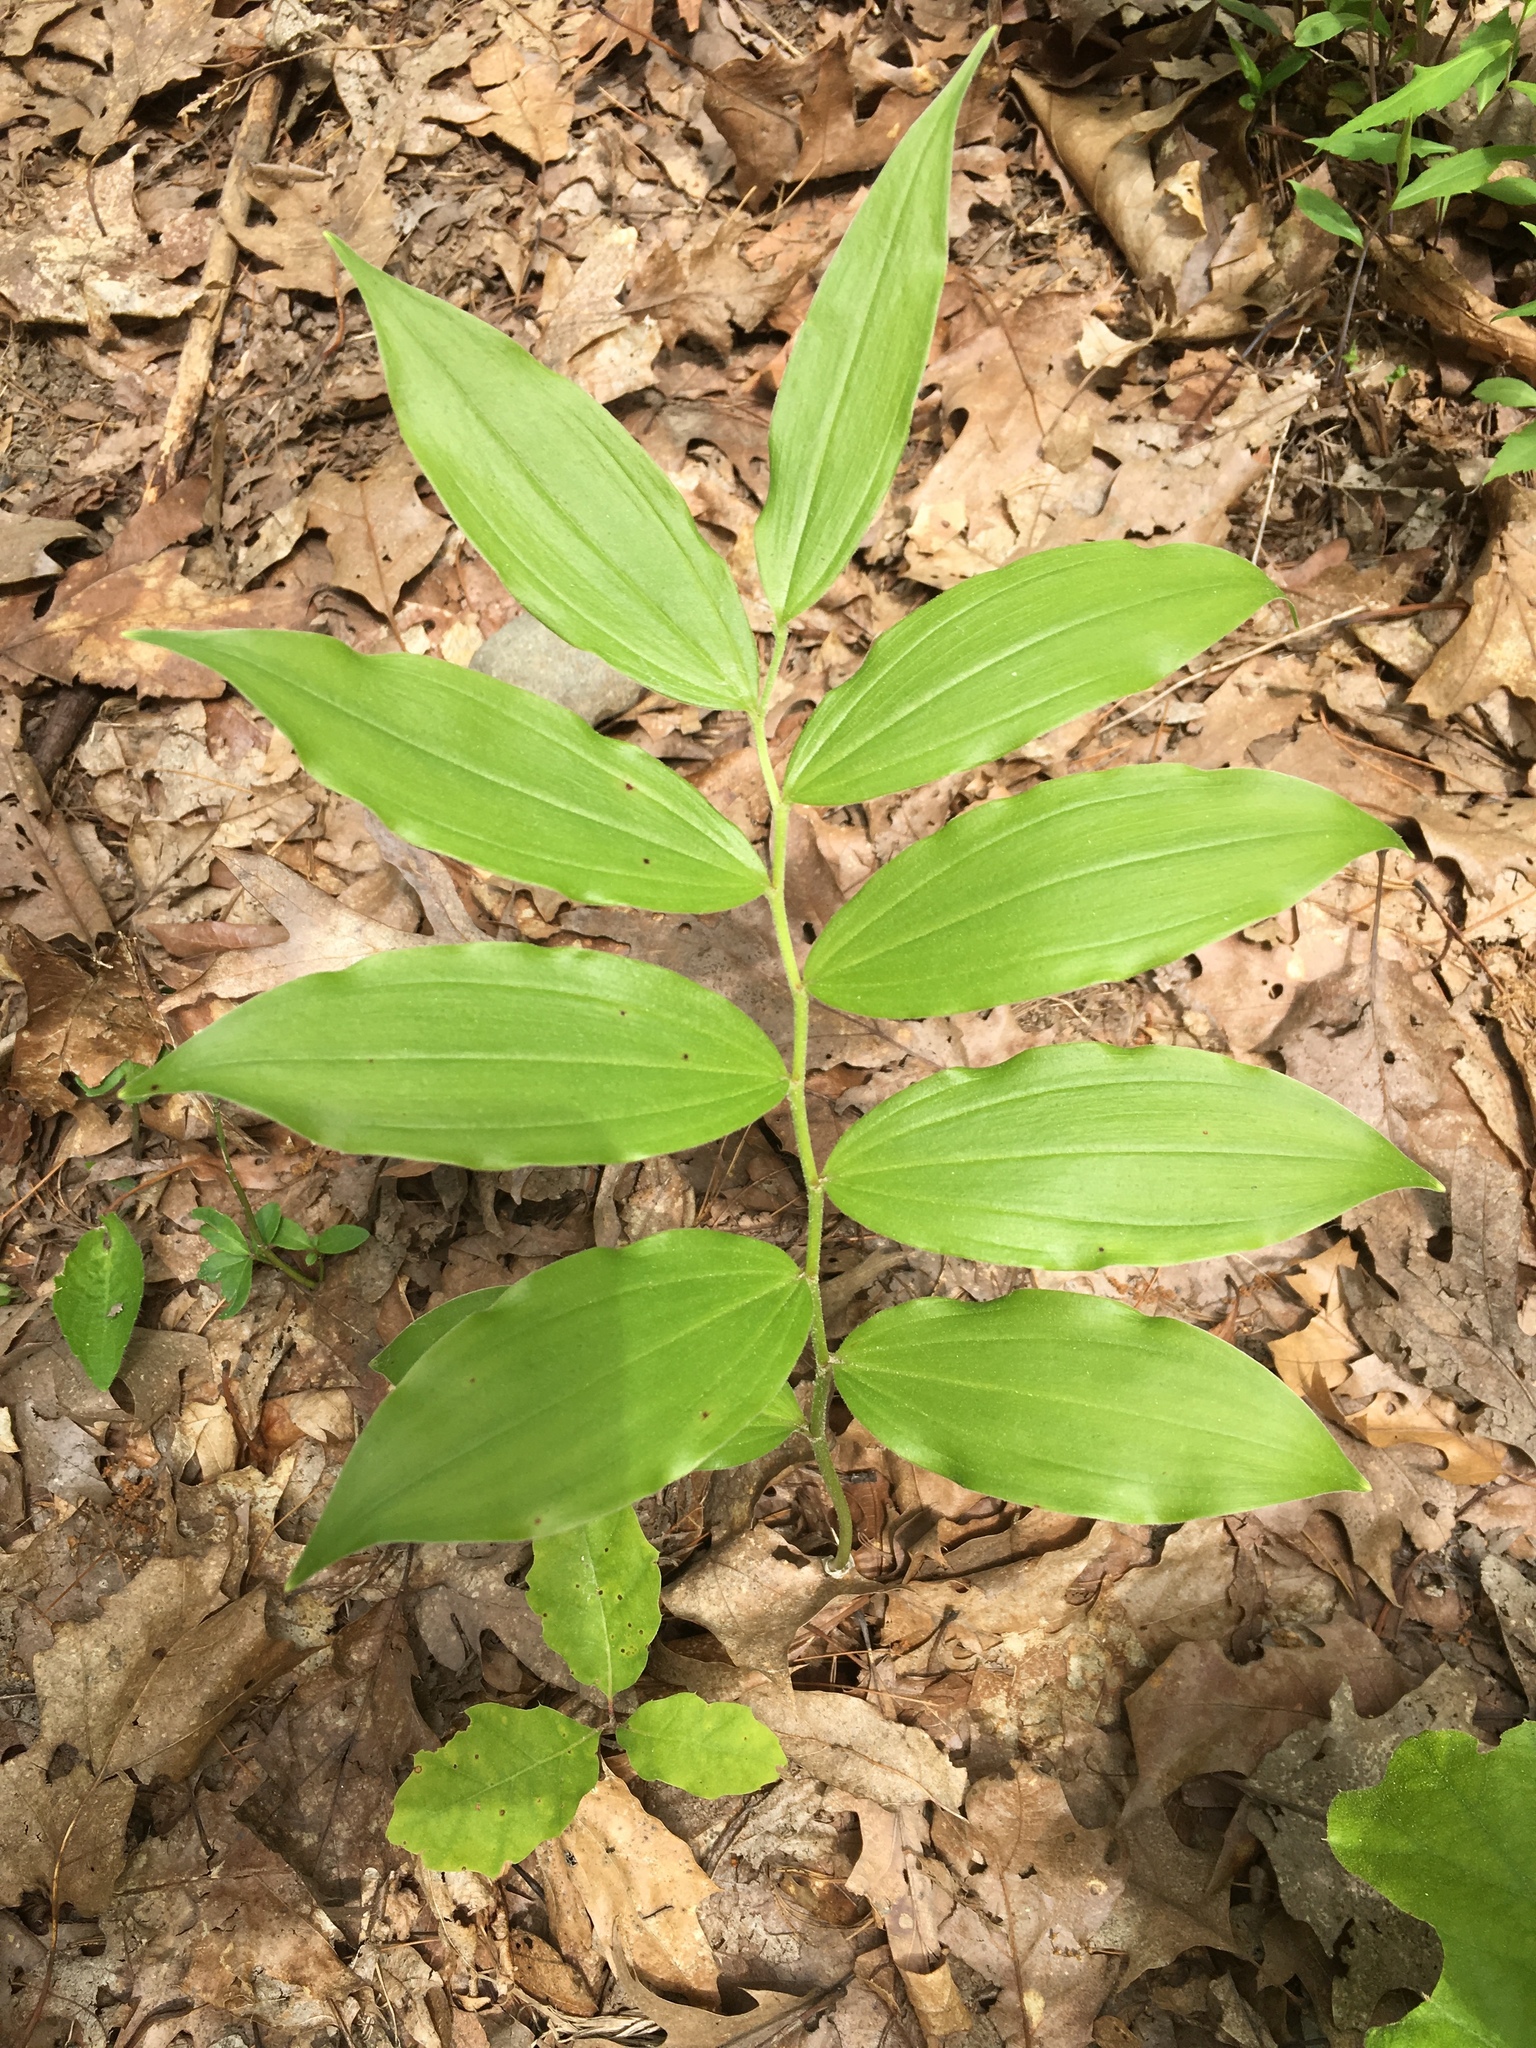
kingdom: Plantae
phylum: Tracheophyta
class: Liliopsida
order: Asparagales
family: Asparagaceae
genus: Maianthemum
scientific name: Maianthemum racemosum
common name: False spikenard
